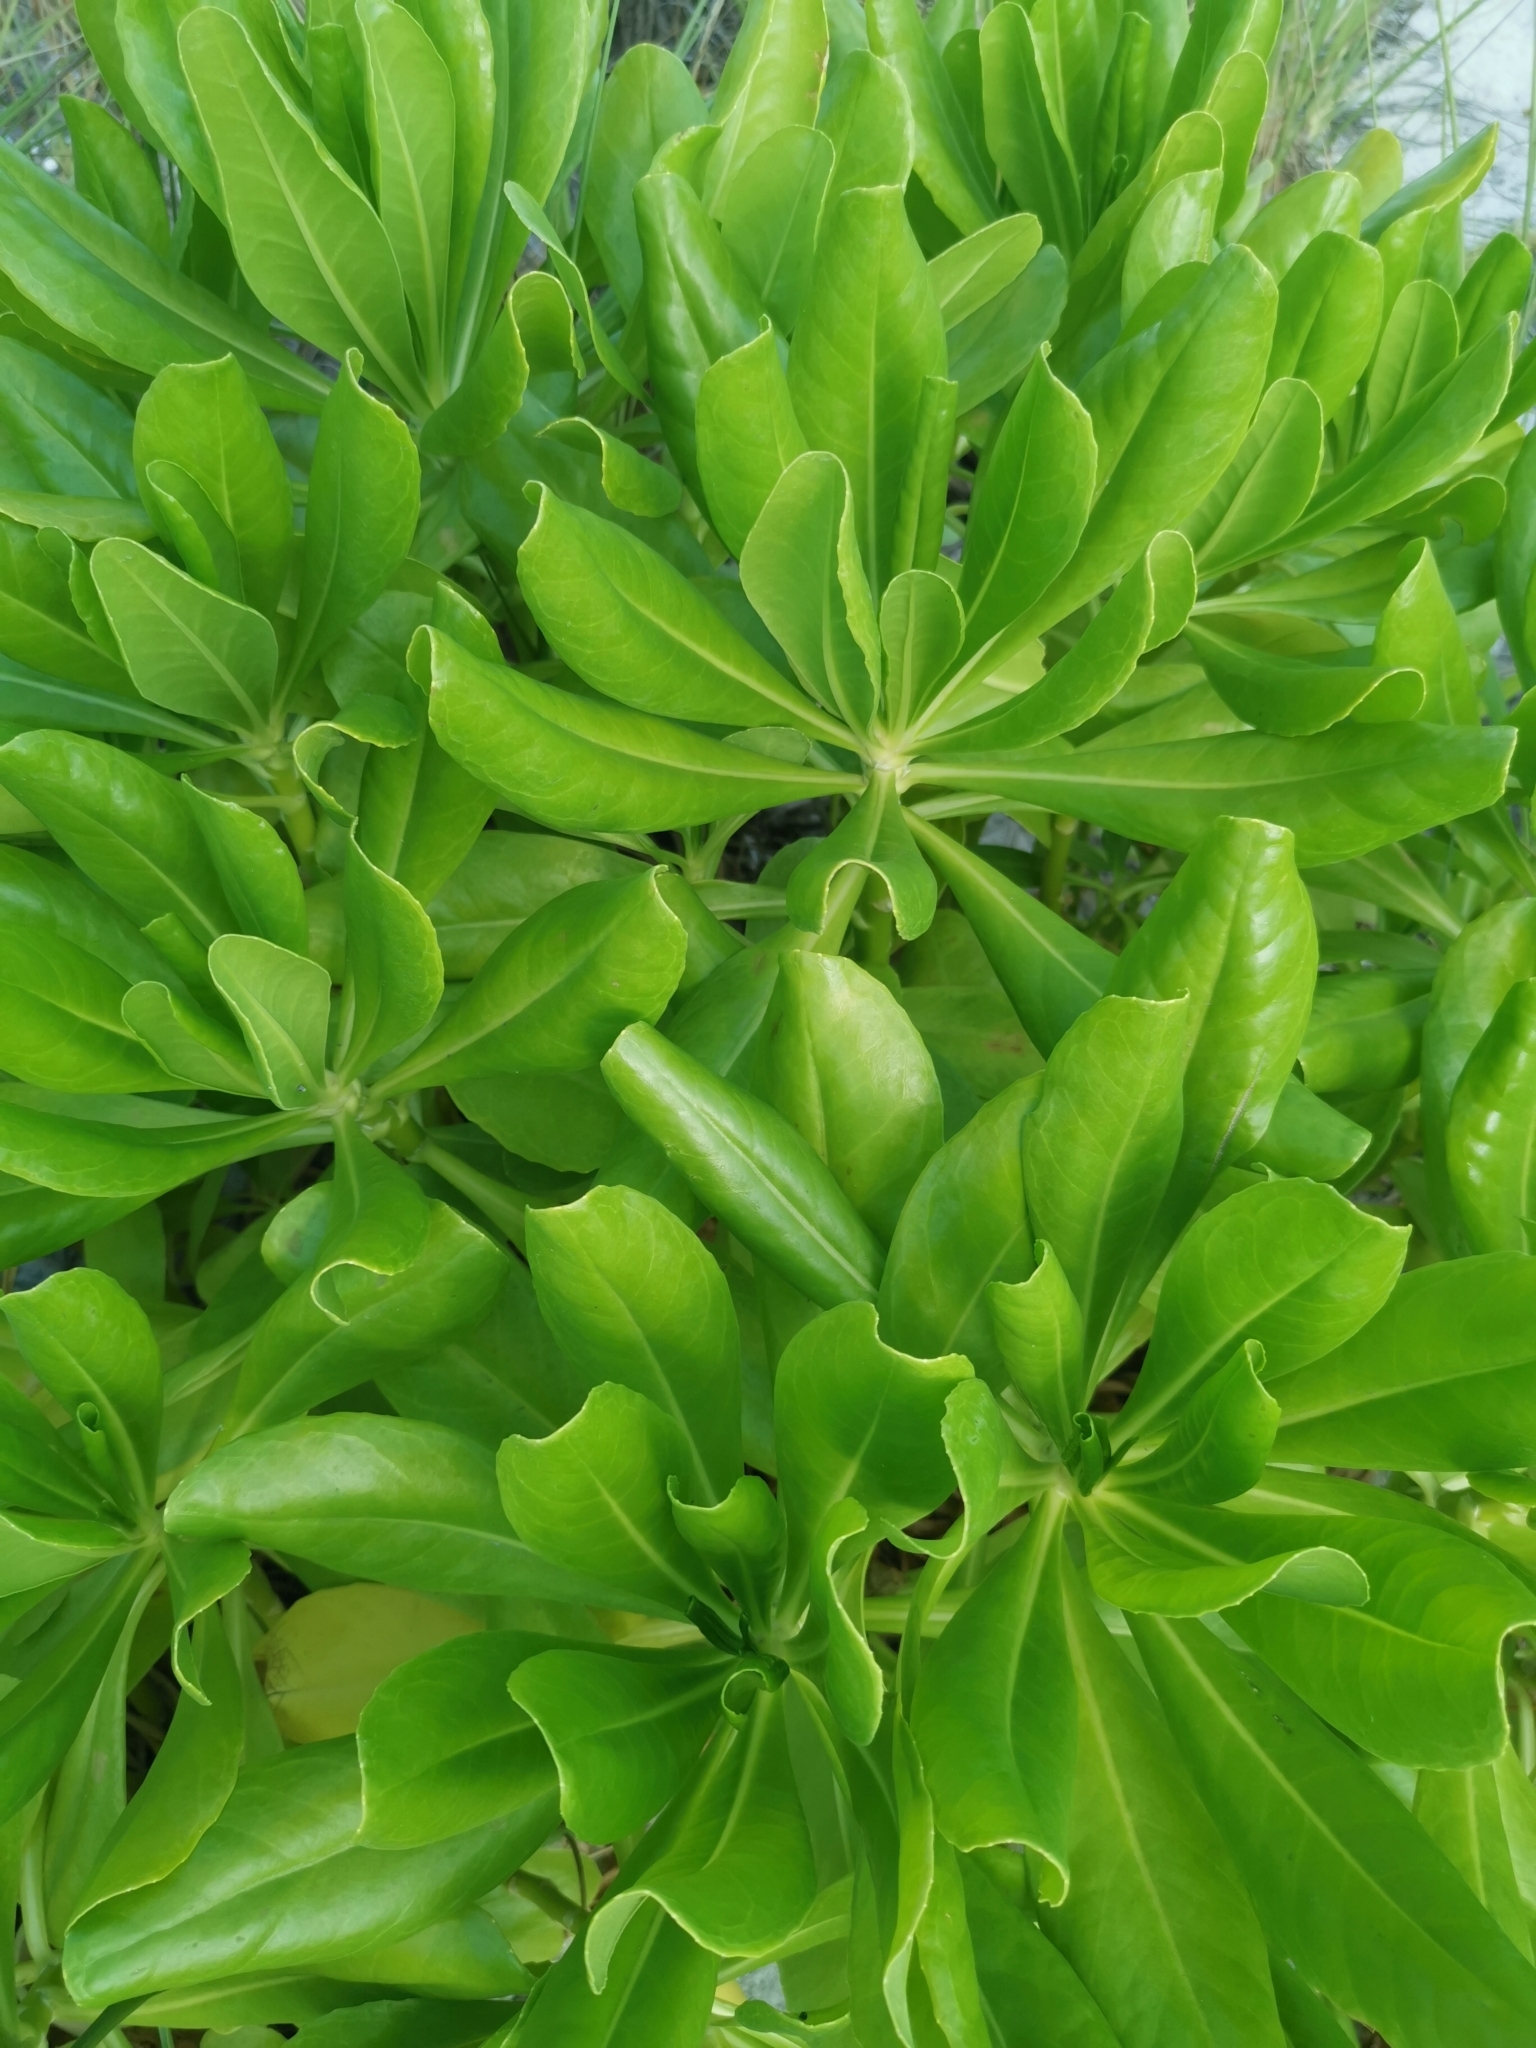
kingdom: Plantae
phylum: Tracheophyta
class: Magnoliopsida
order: Asterales
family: Goodeniaceae
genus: Scaevola
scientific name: Scaevola taccada
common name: Sea lettucetree
